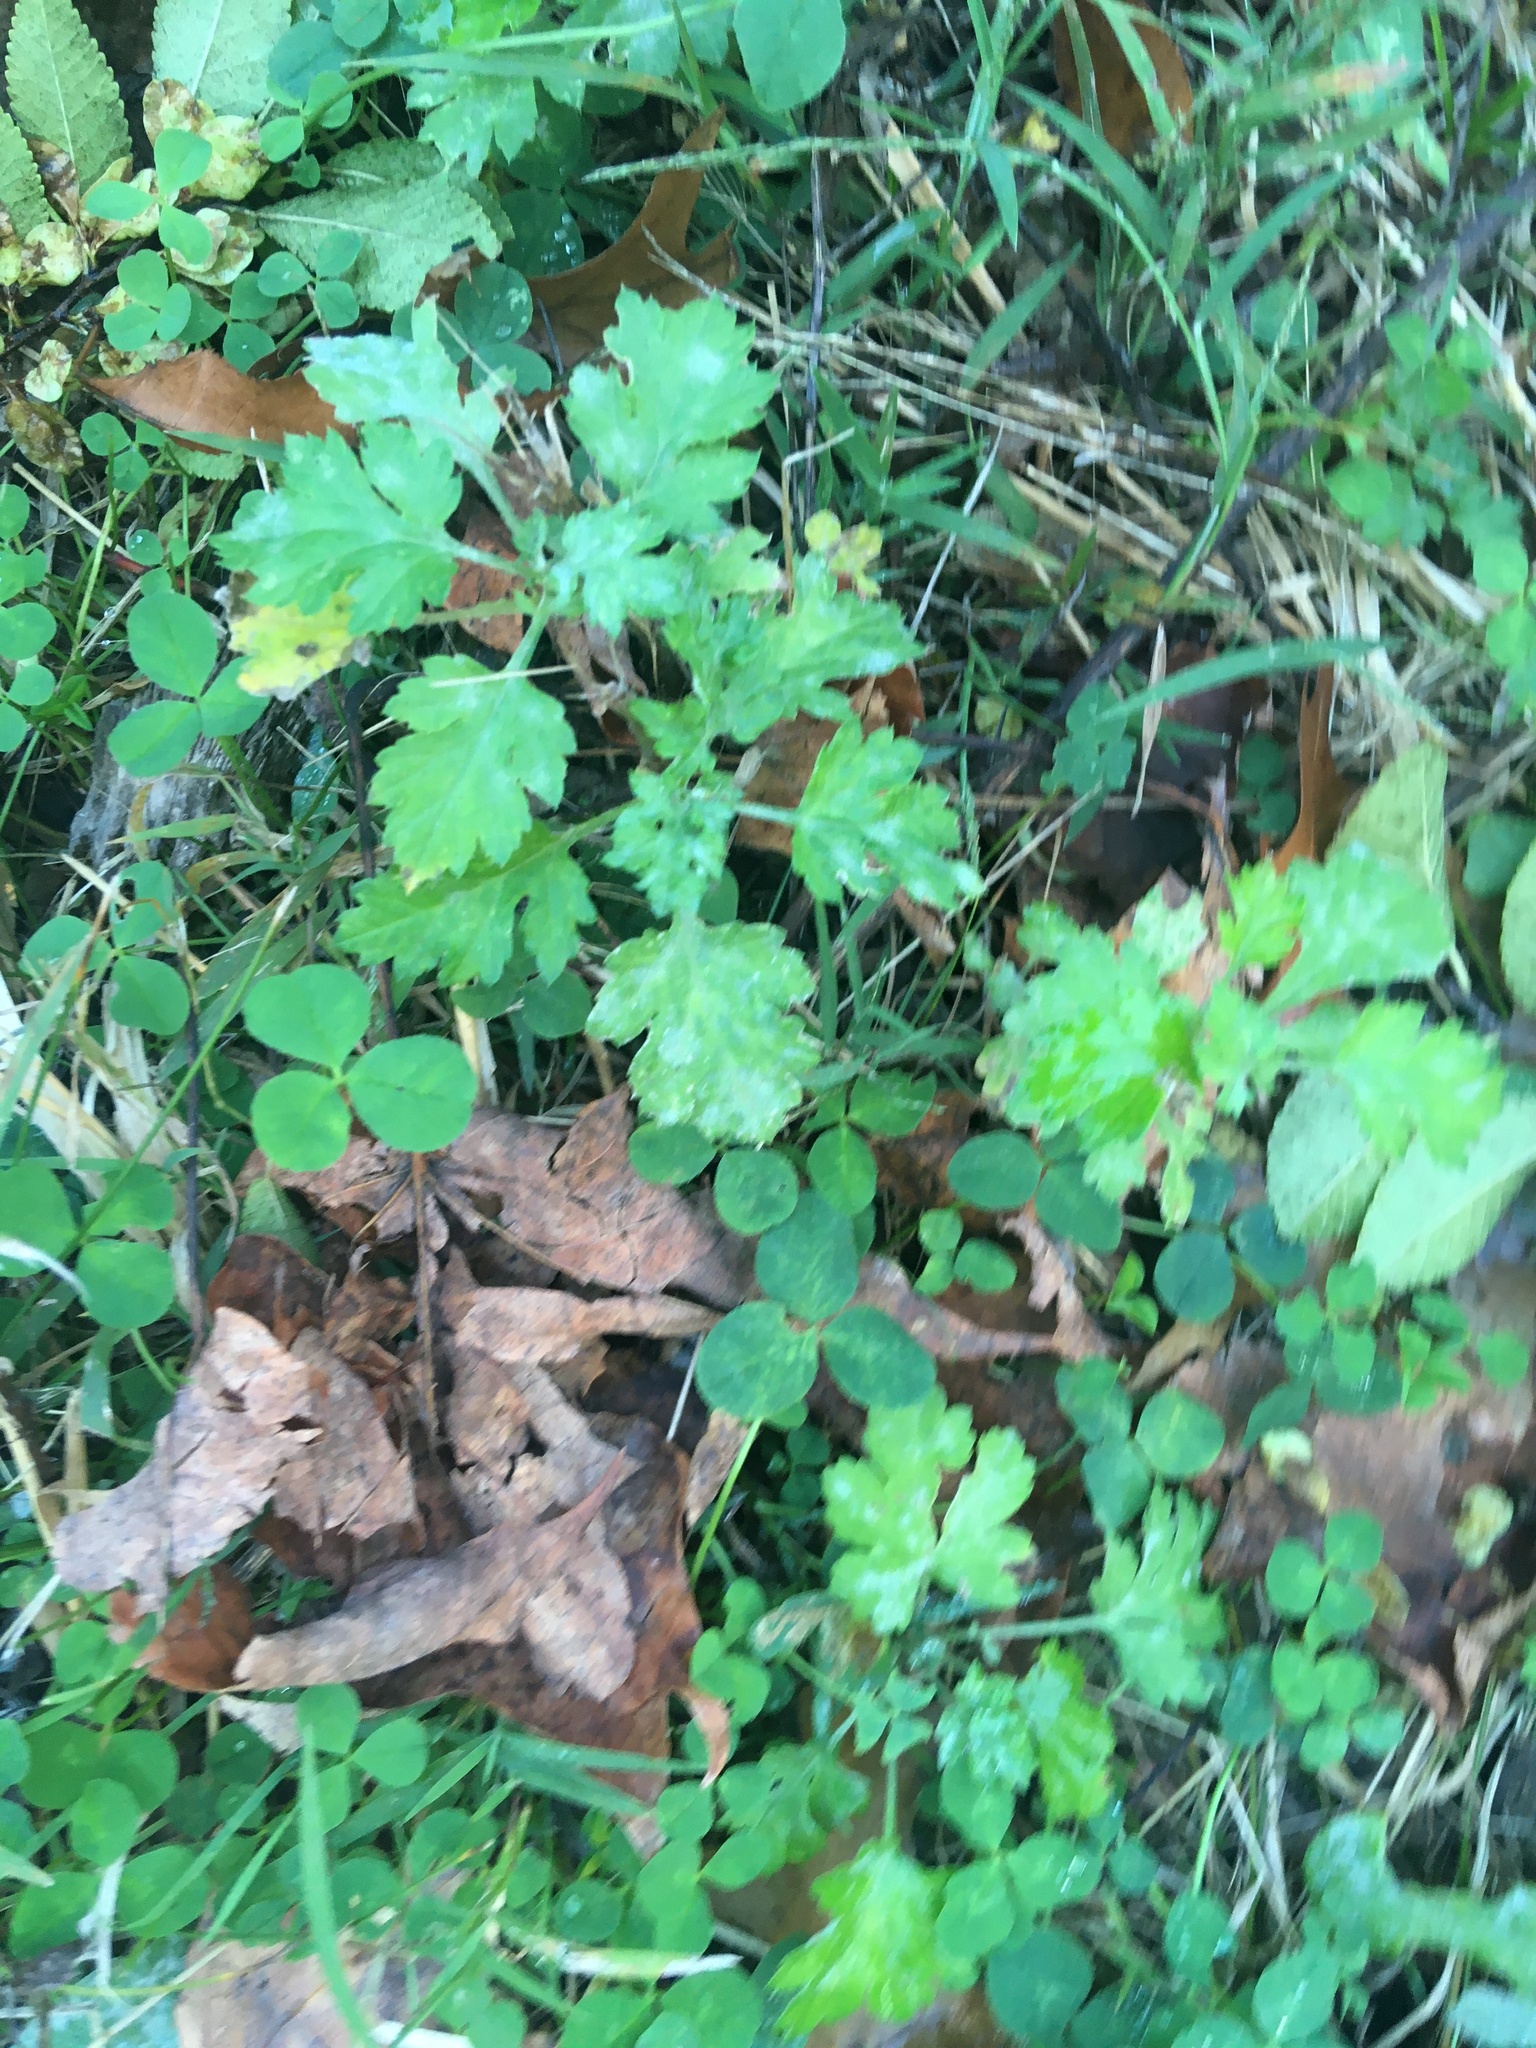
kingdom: Plantae
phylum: Tracheophyta
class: Magnoliopsida
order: Asterales
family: Asteraceae
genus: Artemisia
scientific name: Artemisia vulgaris
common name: Mugwort
